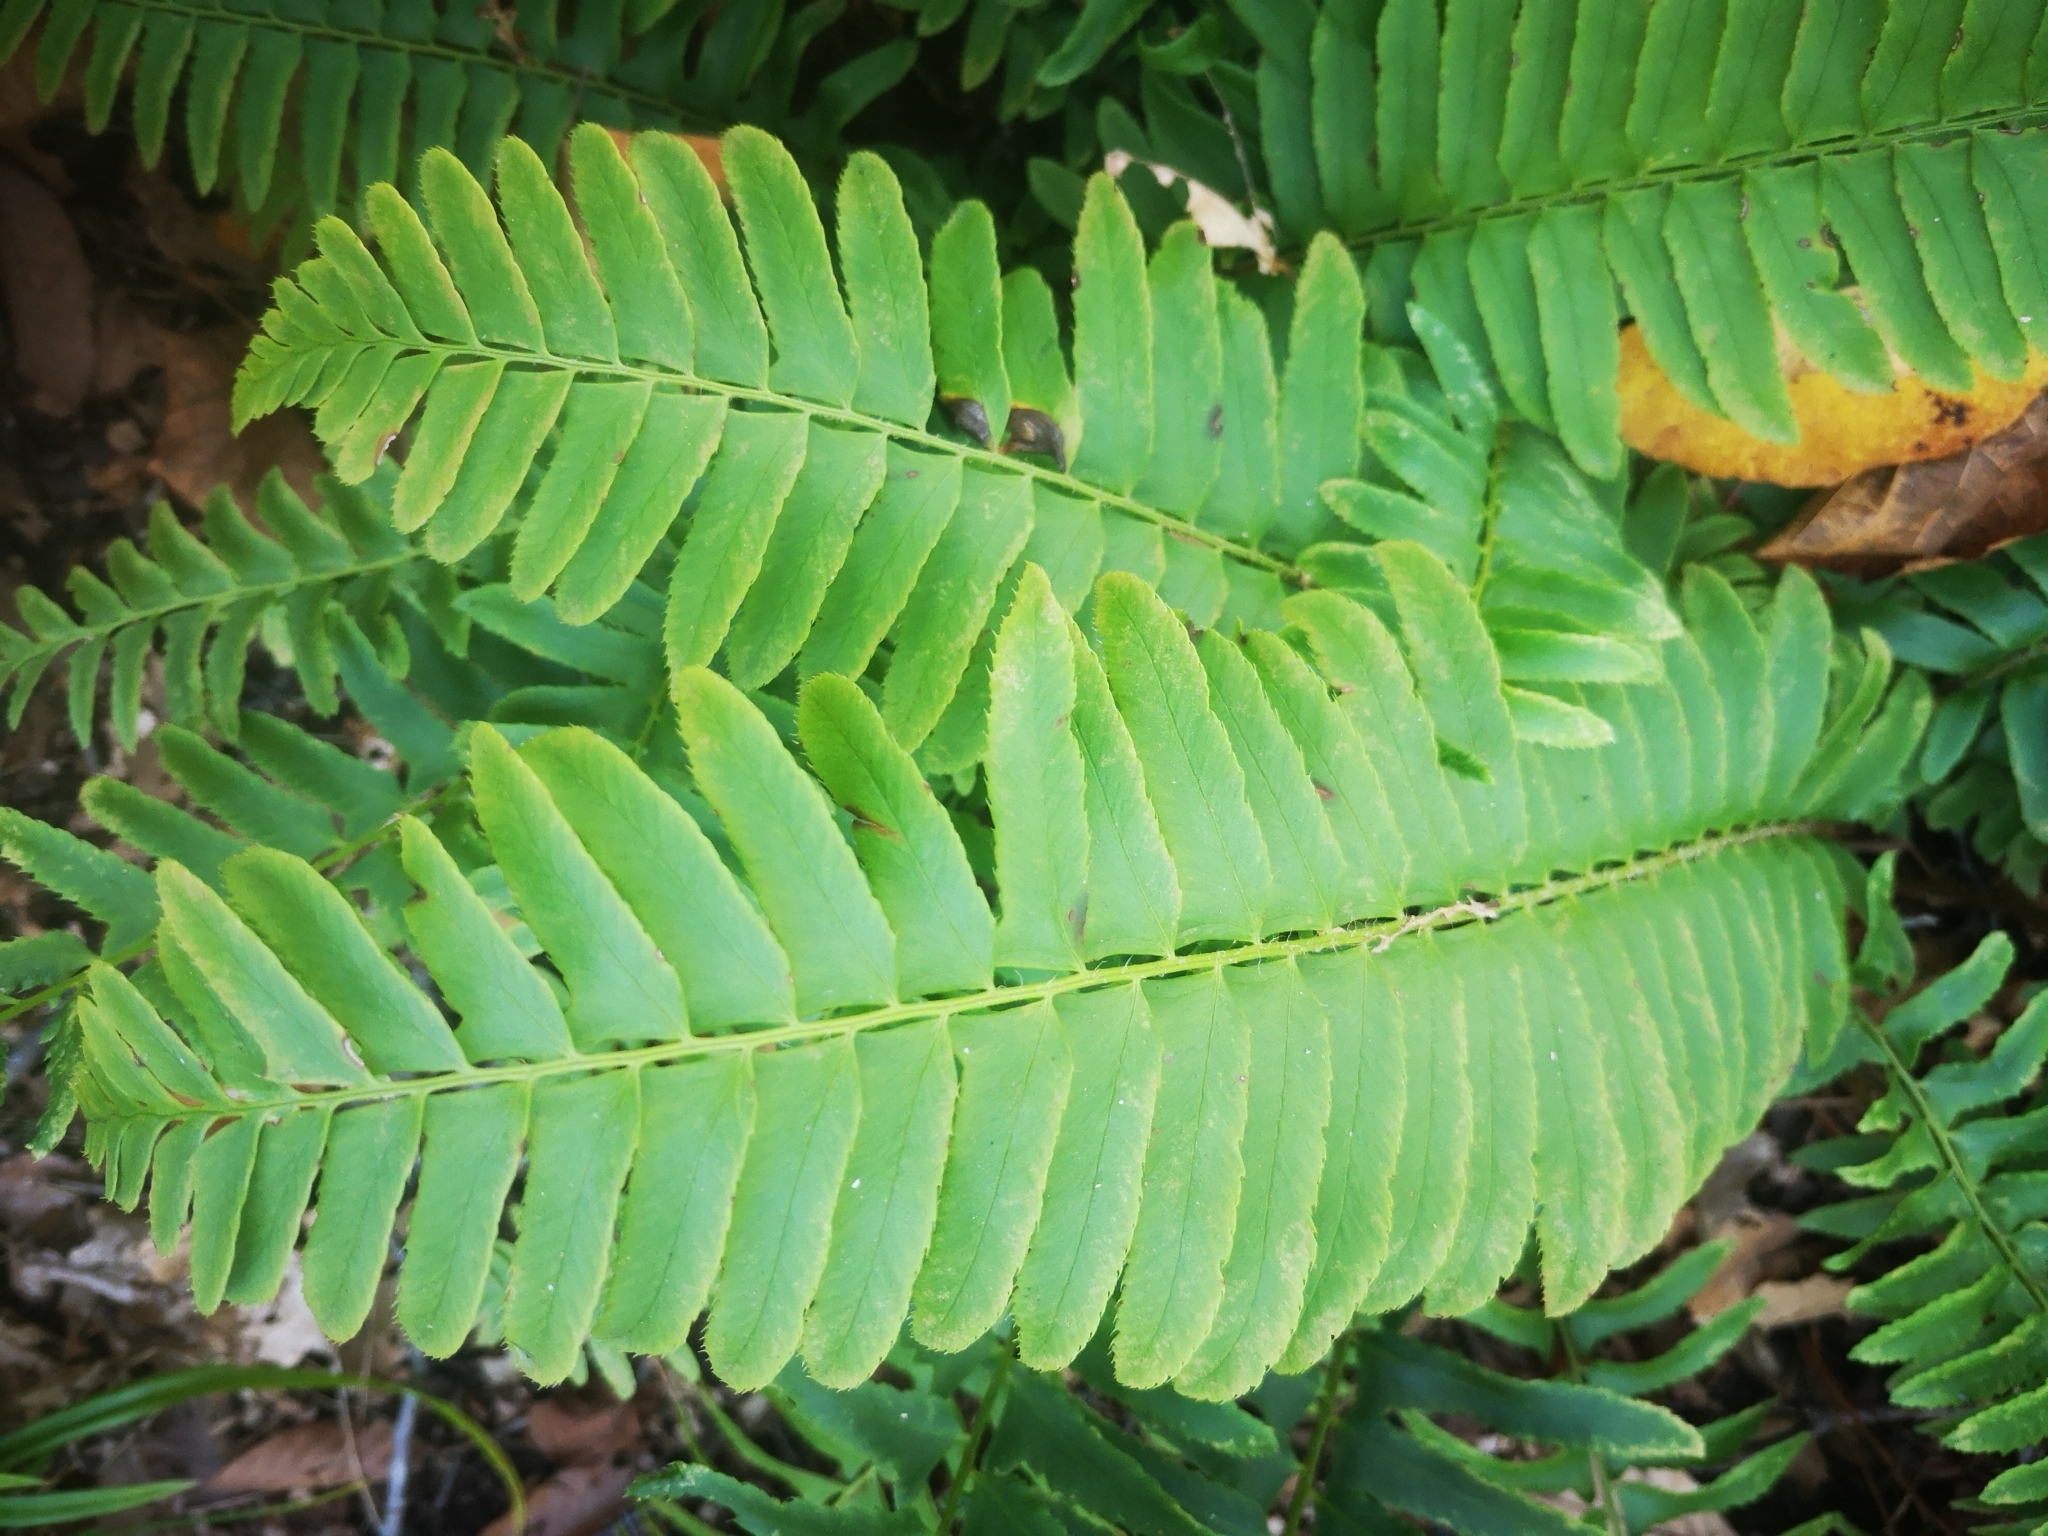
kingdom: Plantae
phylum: Tracheophyta
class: Polypodiopsida
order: Polypodiales
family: Dryopteridaceae
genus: Polystichum
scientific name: Polystichum acrostichoides
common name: Christmas fern
